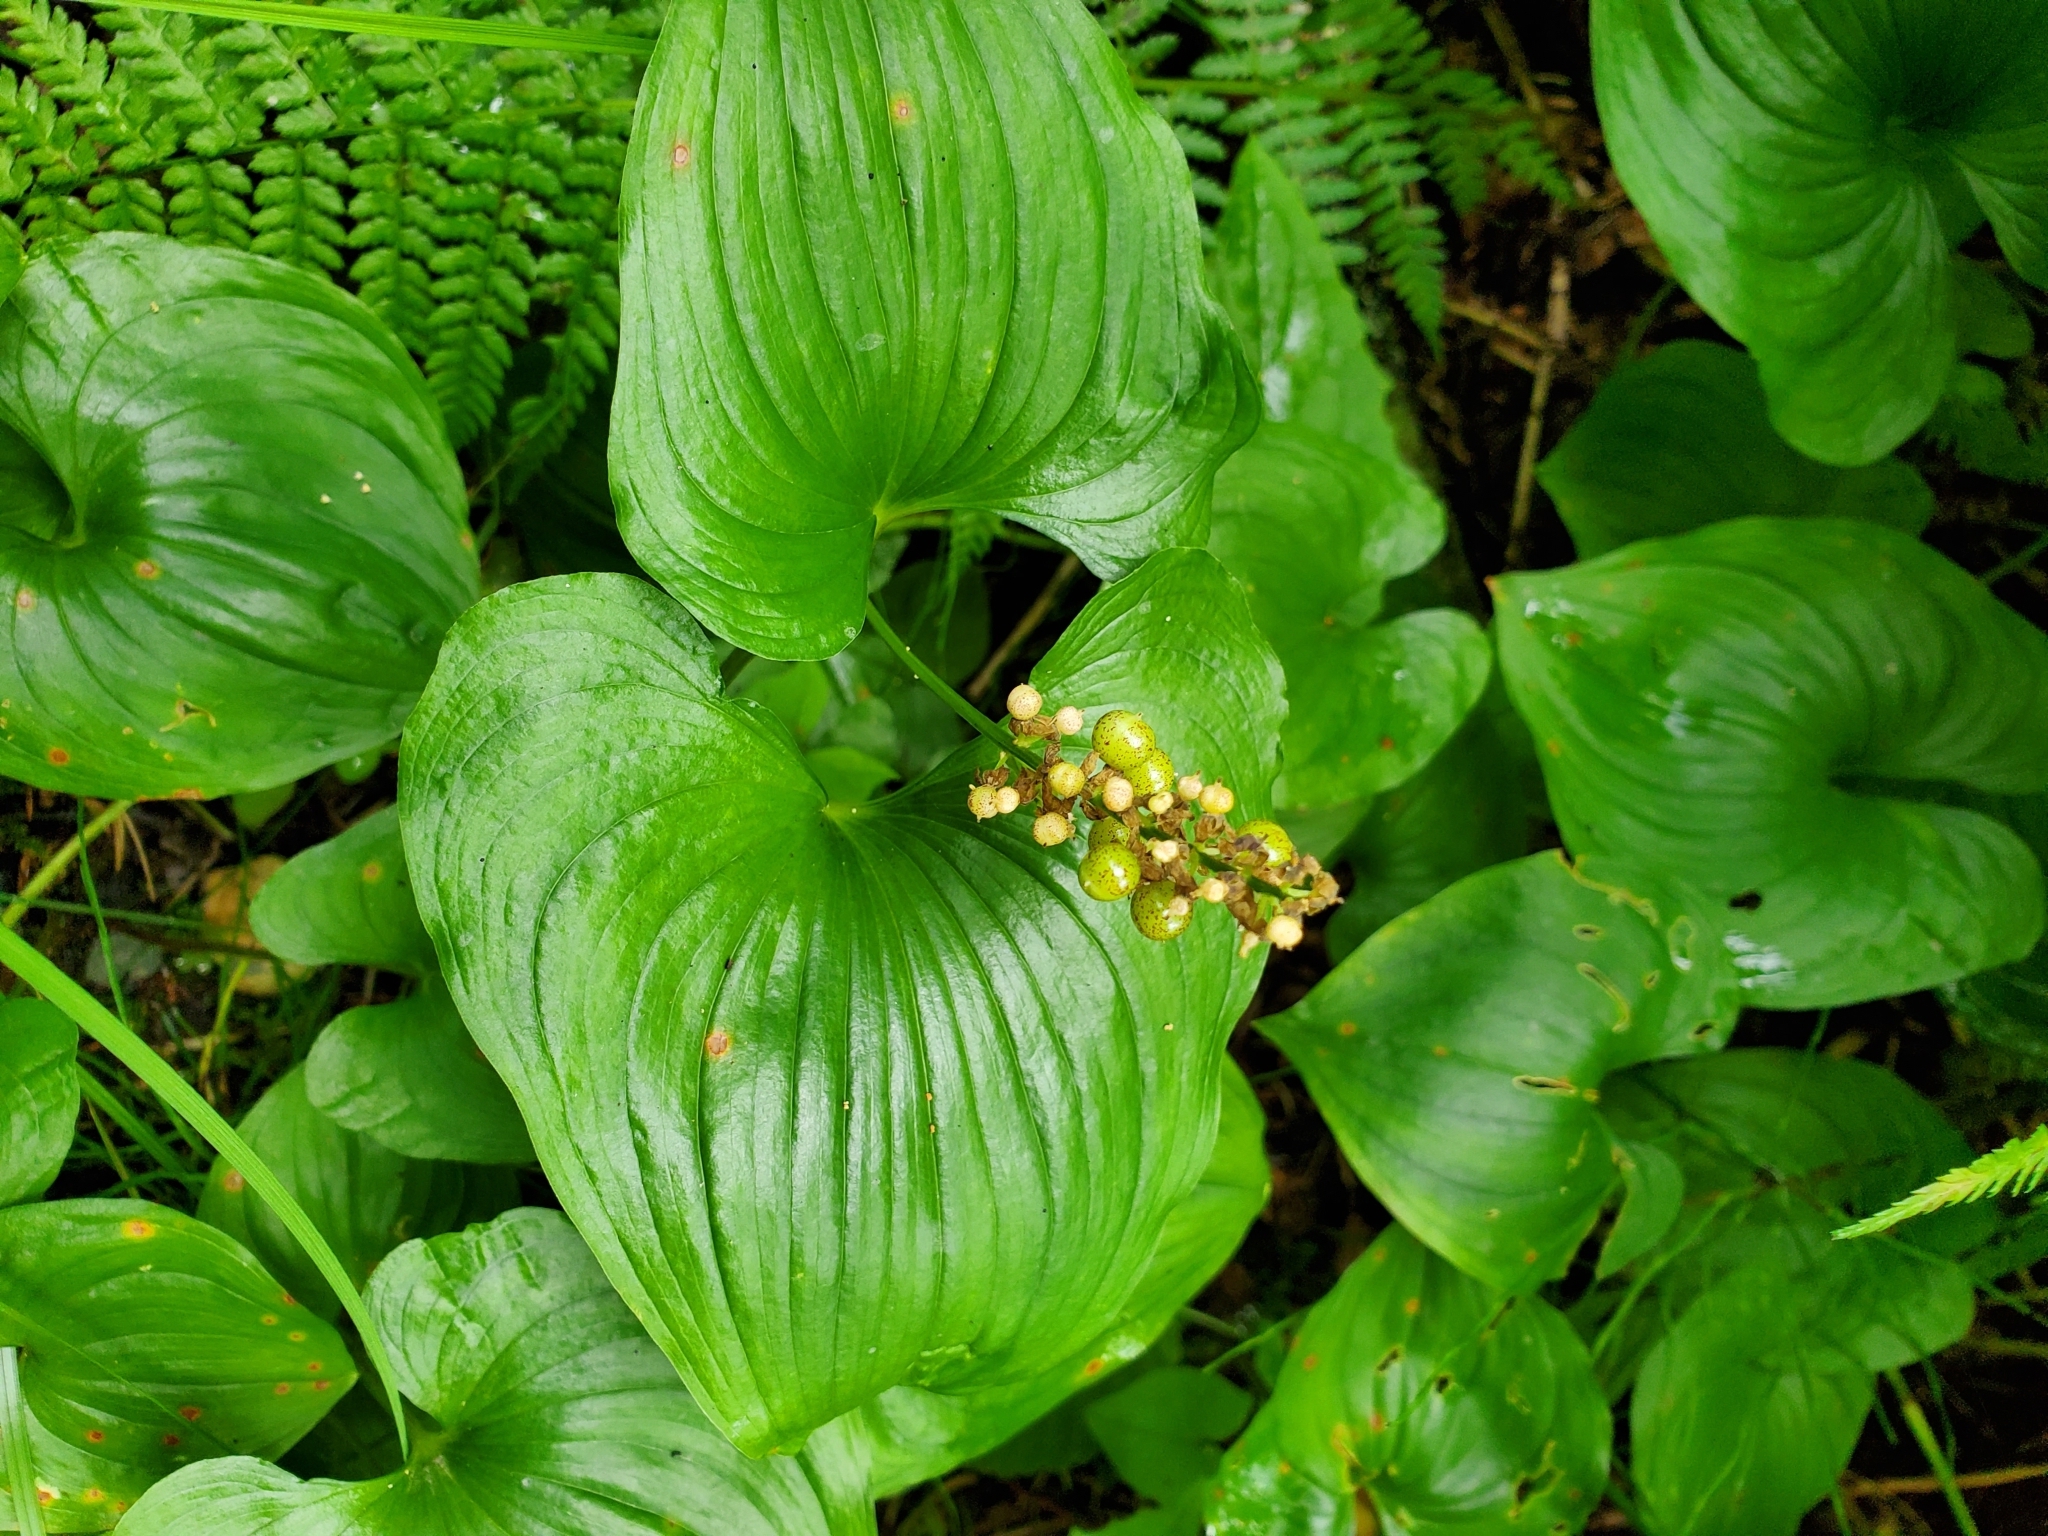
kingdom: Plantae
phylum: Tracheophyta
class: Liliopsida
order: Asparagales
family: Asparagaceae
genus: Maianthemum
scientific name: Maianthemum dilatatum
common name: False lily-of-the-valley
